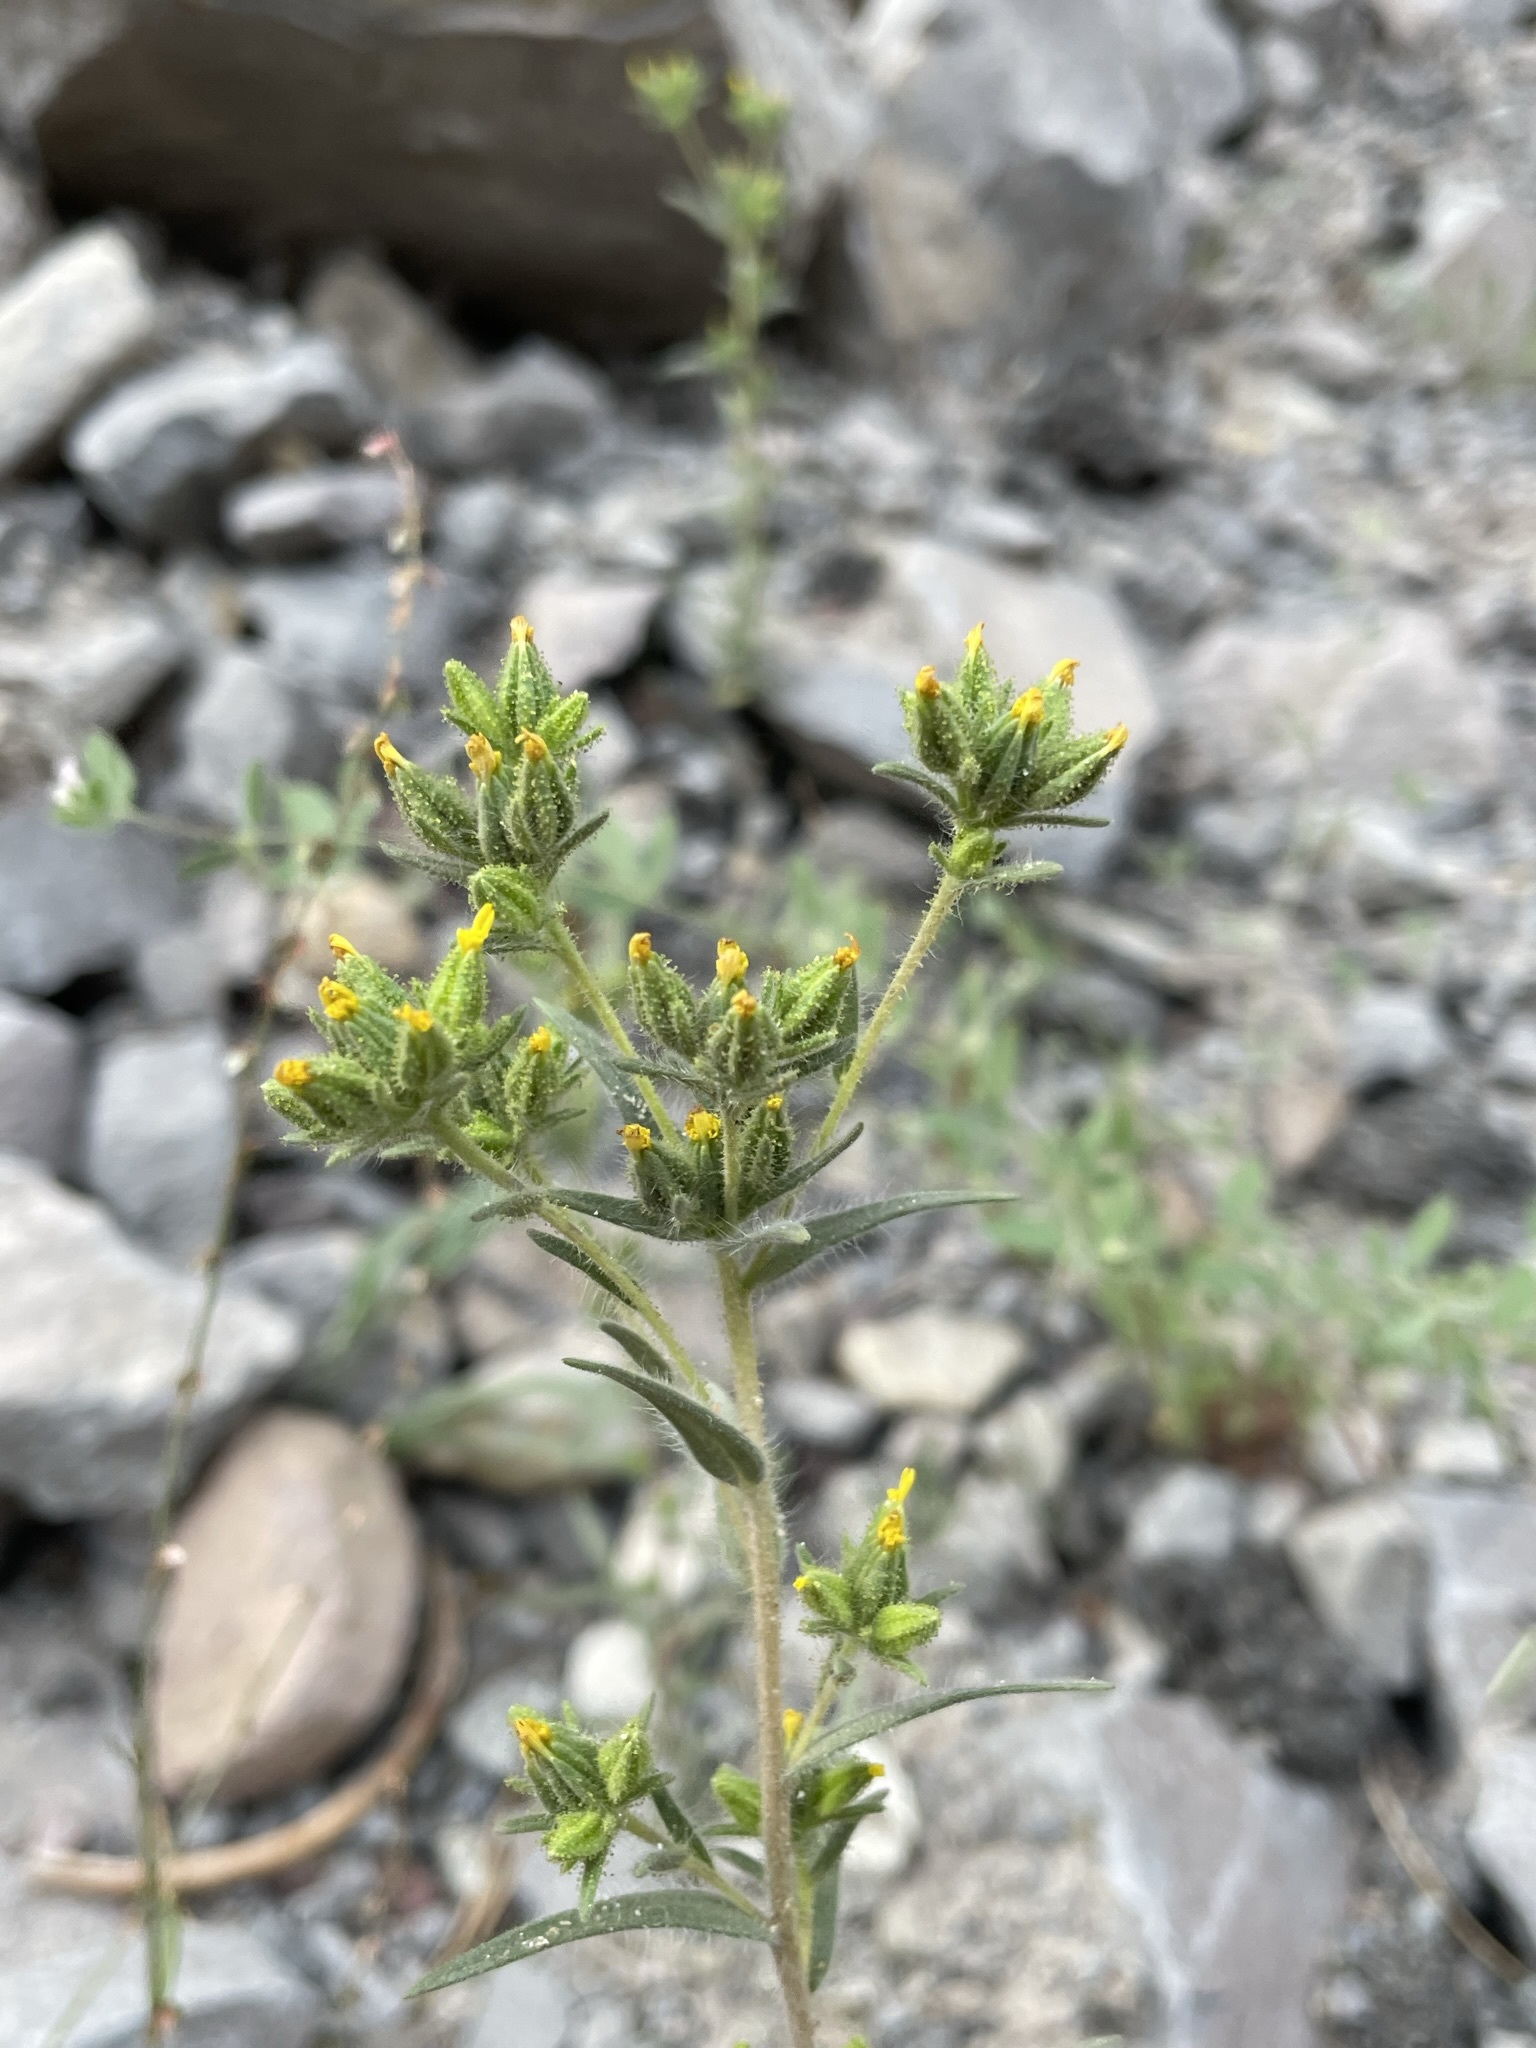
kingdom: Plantae
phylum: Tracheophyta
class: Magnoliopsida
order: Asterales
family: Asteraceae
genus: Madia
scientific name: Madia glomerata
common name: Mountain tarweed
